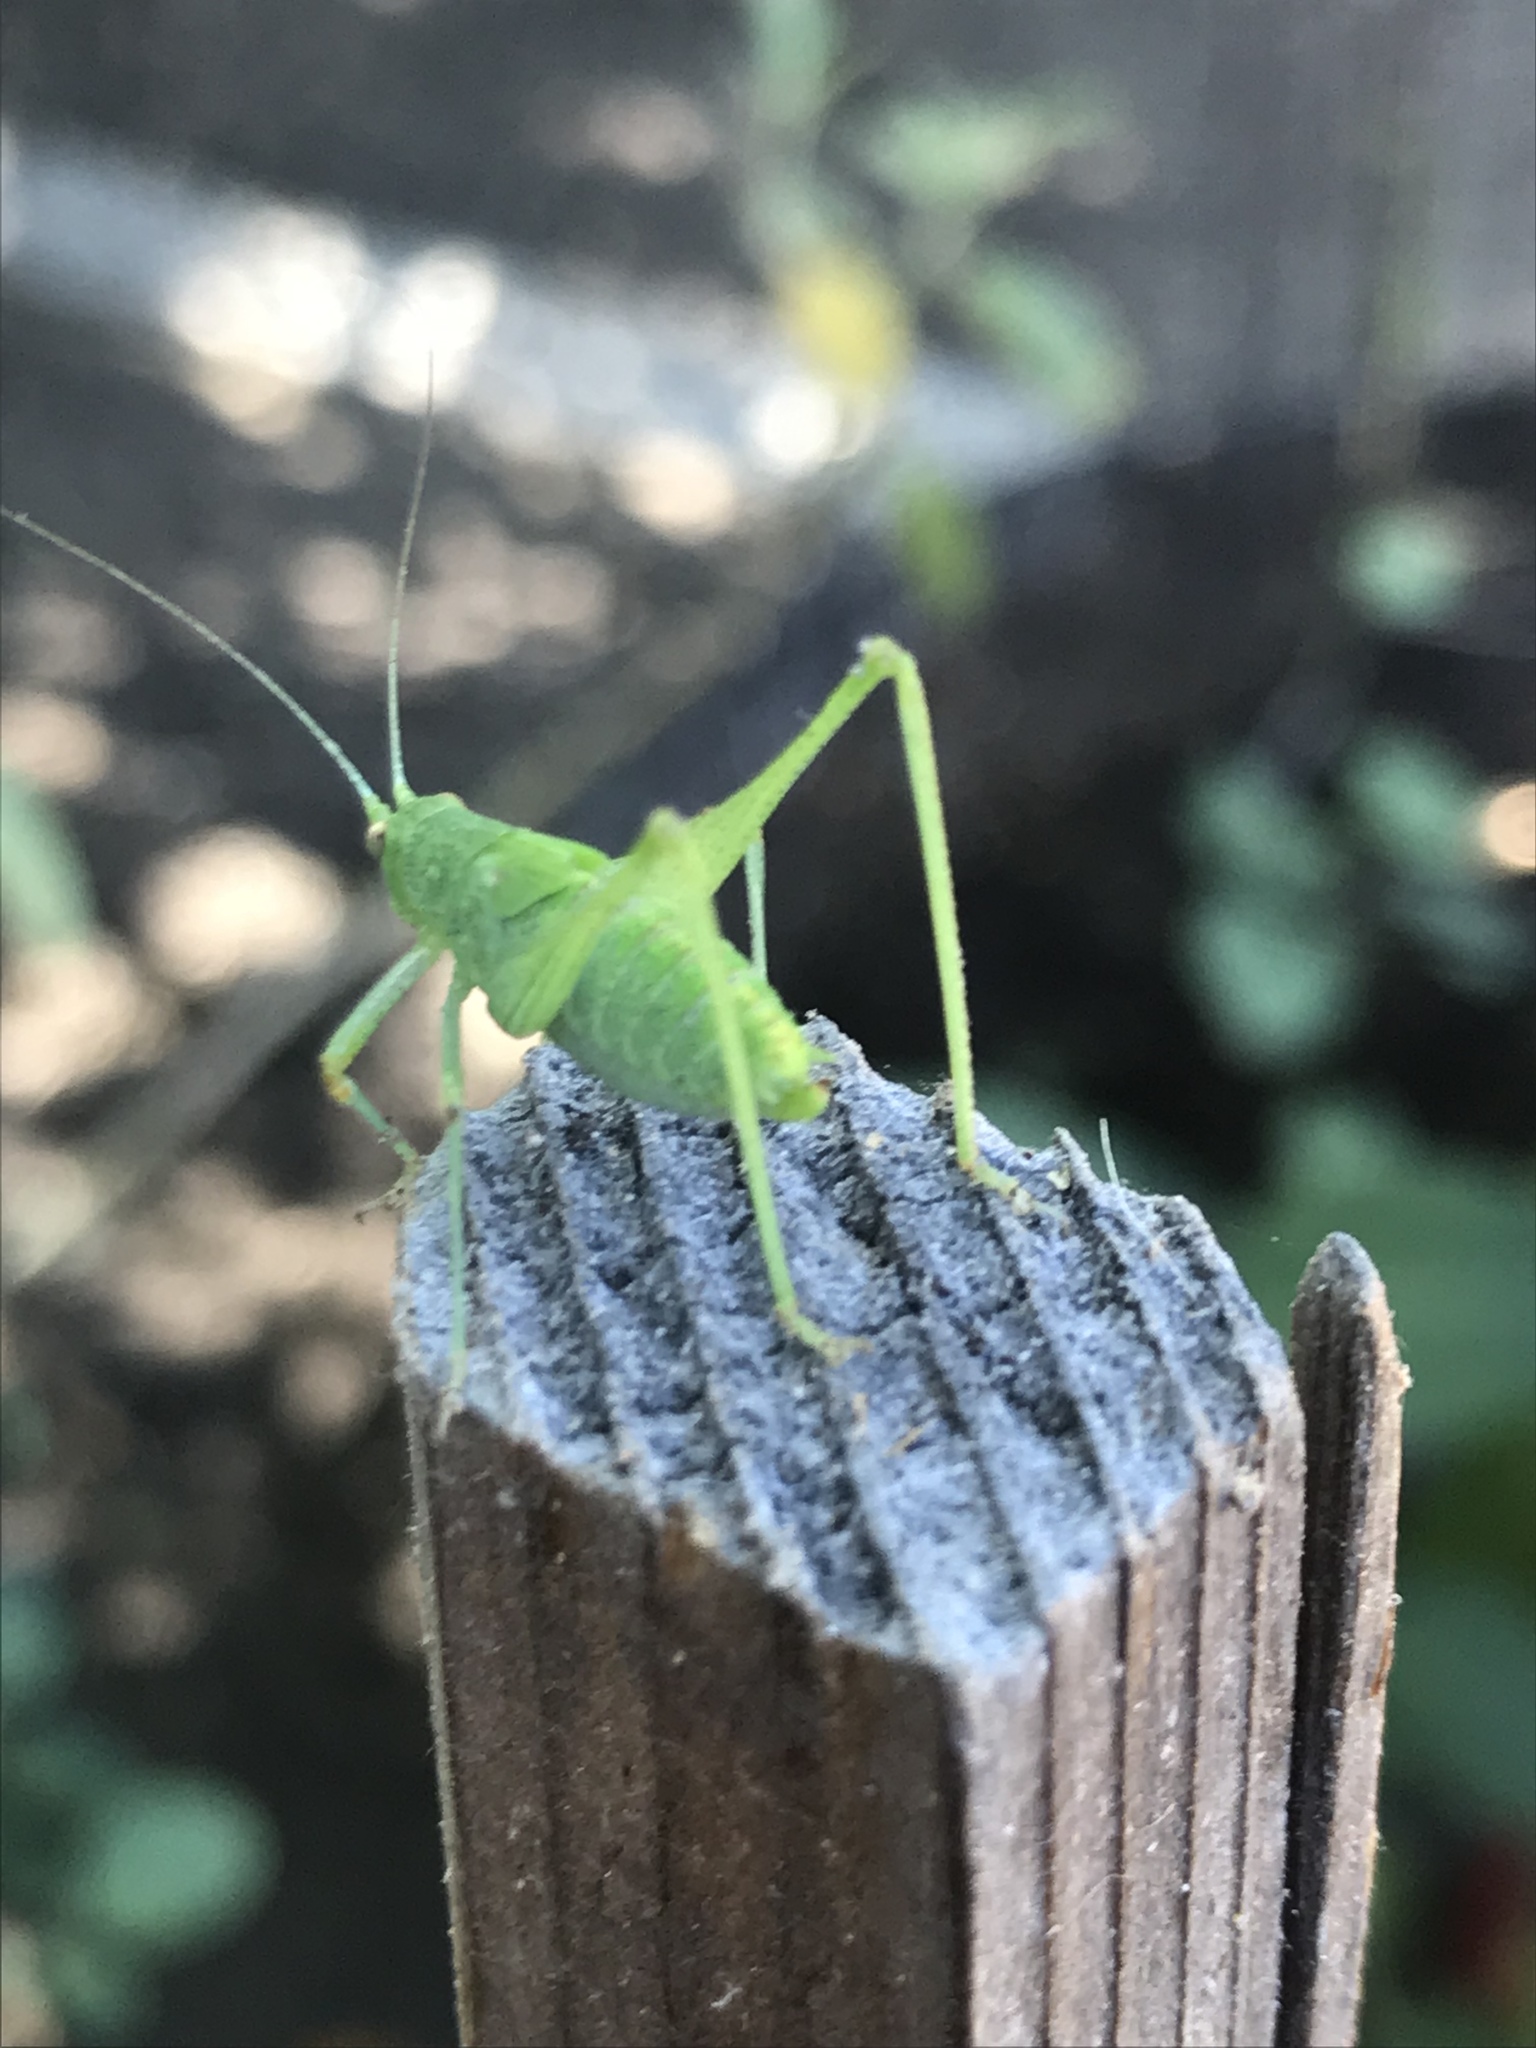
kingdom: Animalia
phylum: Arthropoda
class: Insecta
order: Orthoptera
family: Tettigoniidae
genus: Phaneroptera
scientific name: Phaneroptera nana
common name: Southern sickle bush-cricket
